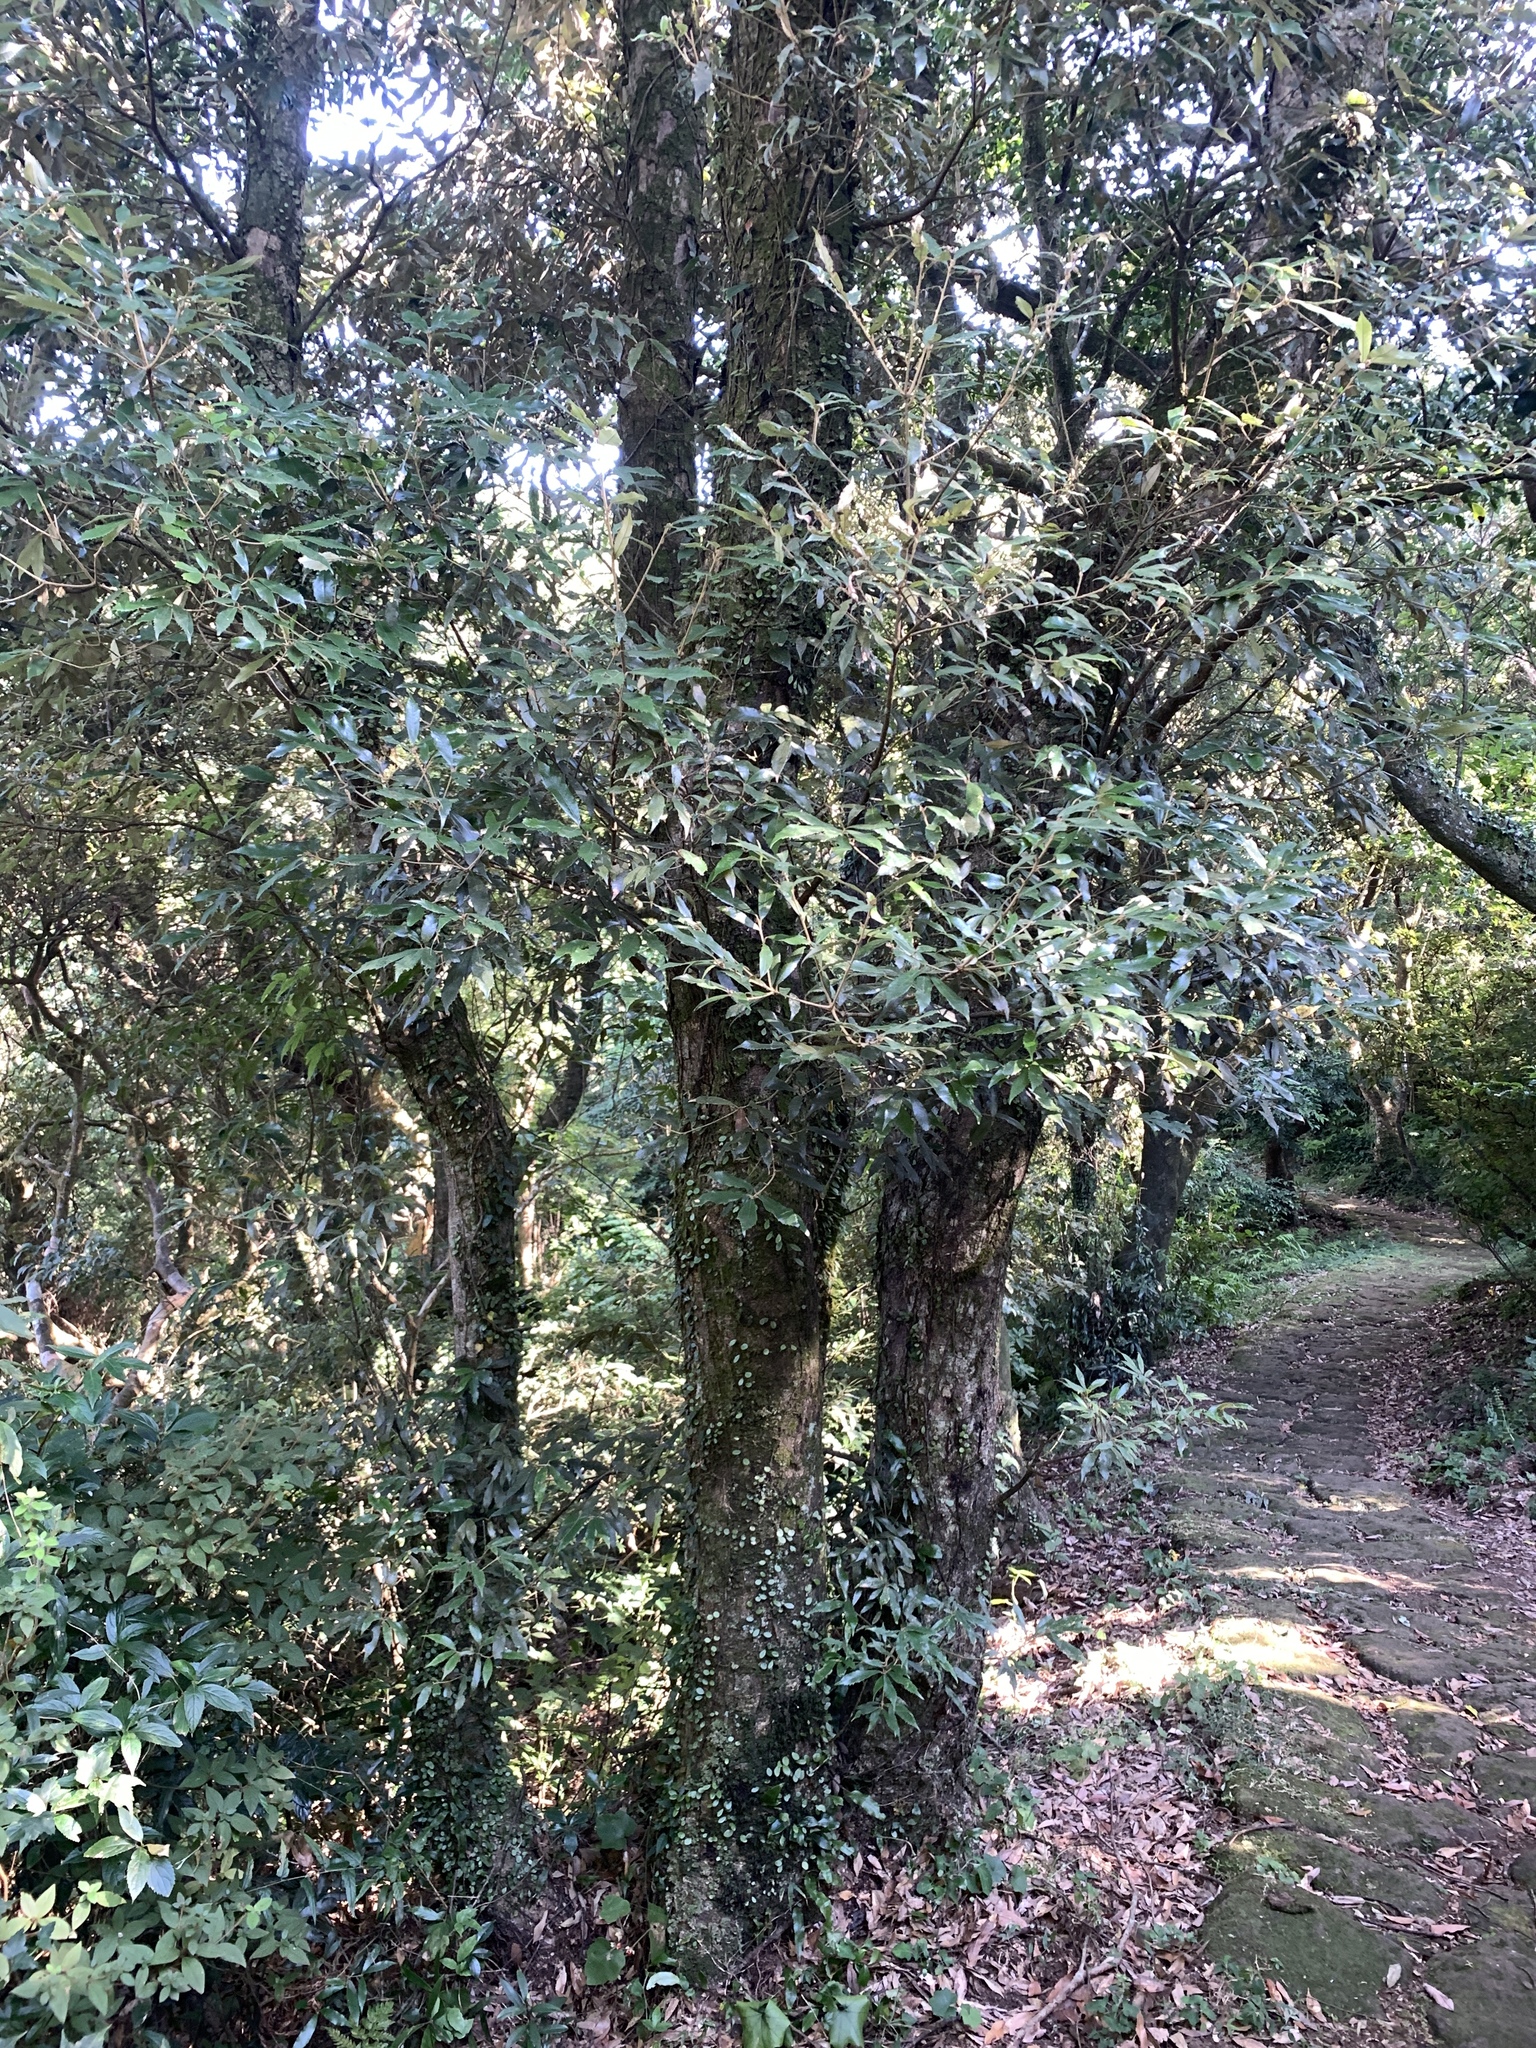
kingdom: Plantae
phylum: Tracheophyta
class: Magnoliopsida
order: Fagales
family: Fagaceae
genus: Quercus
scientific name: Quercus gilva
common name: Redbark oak
